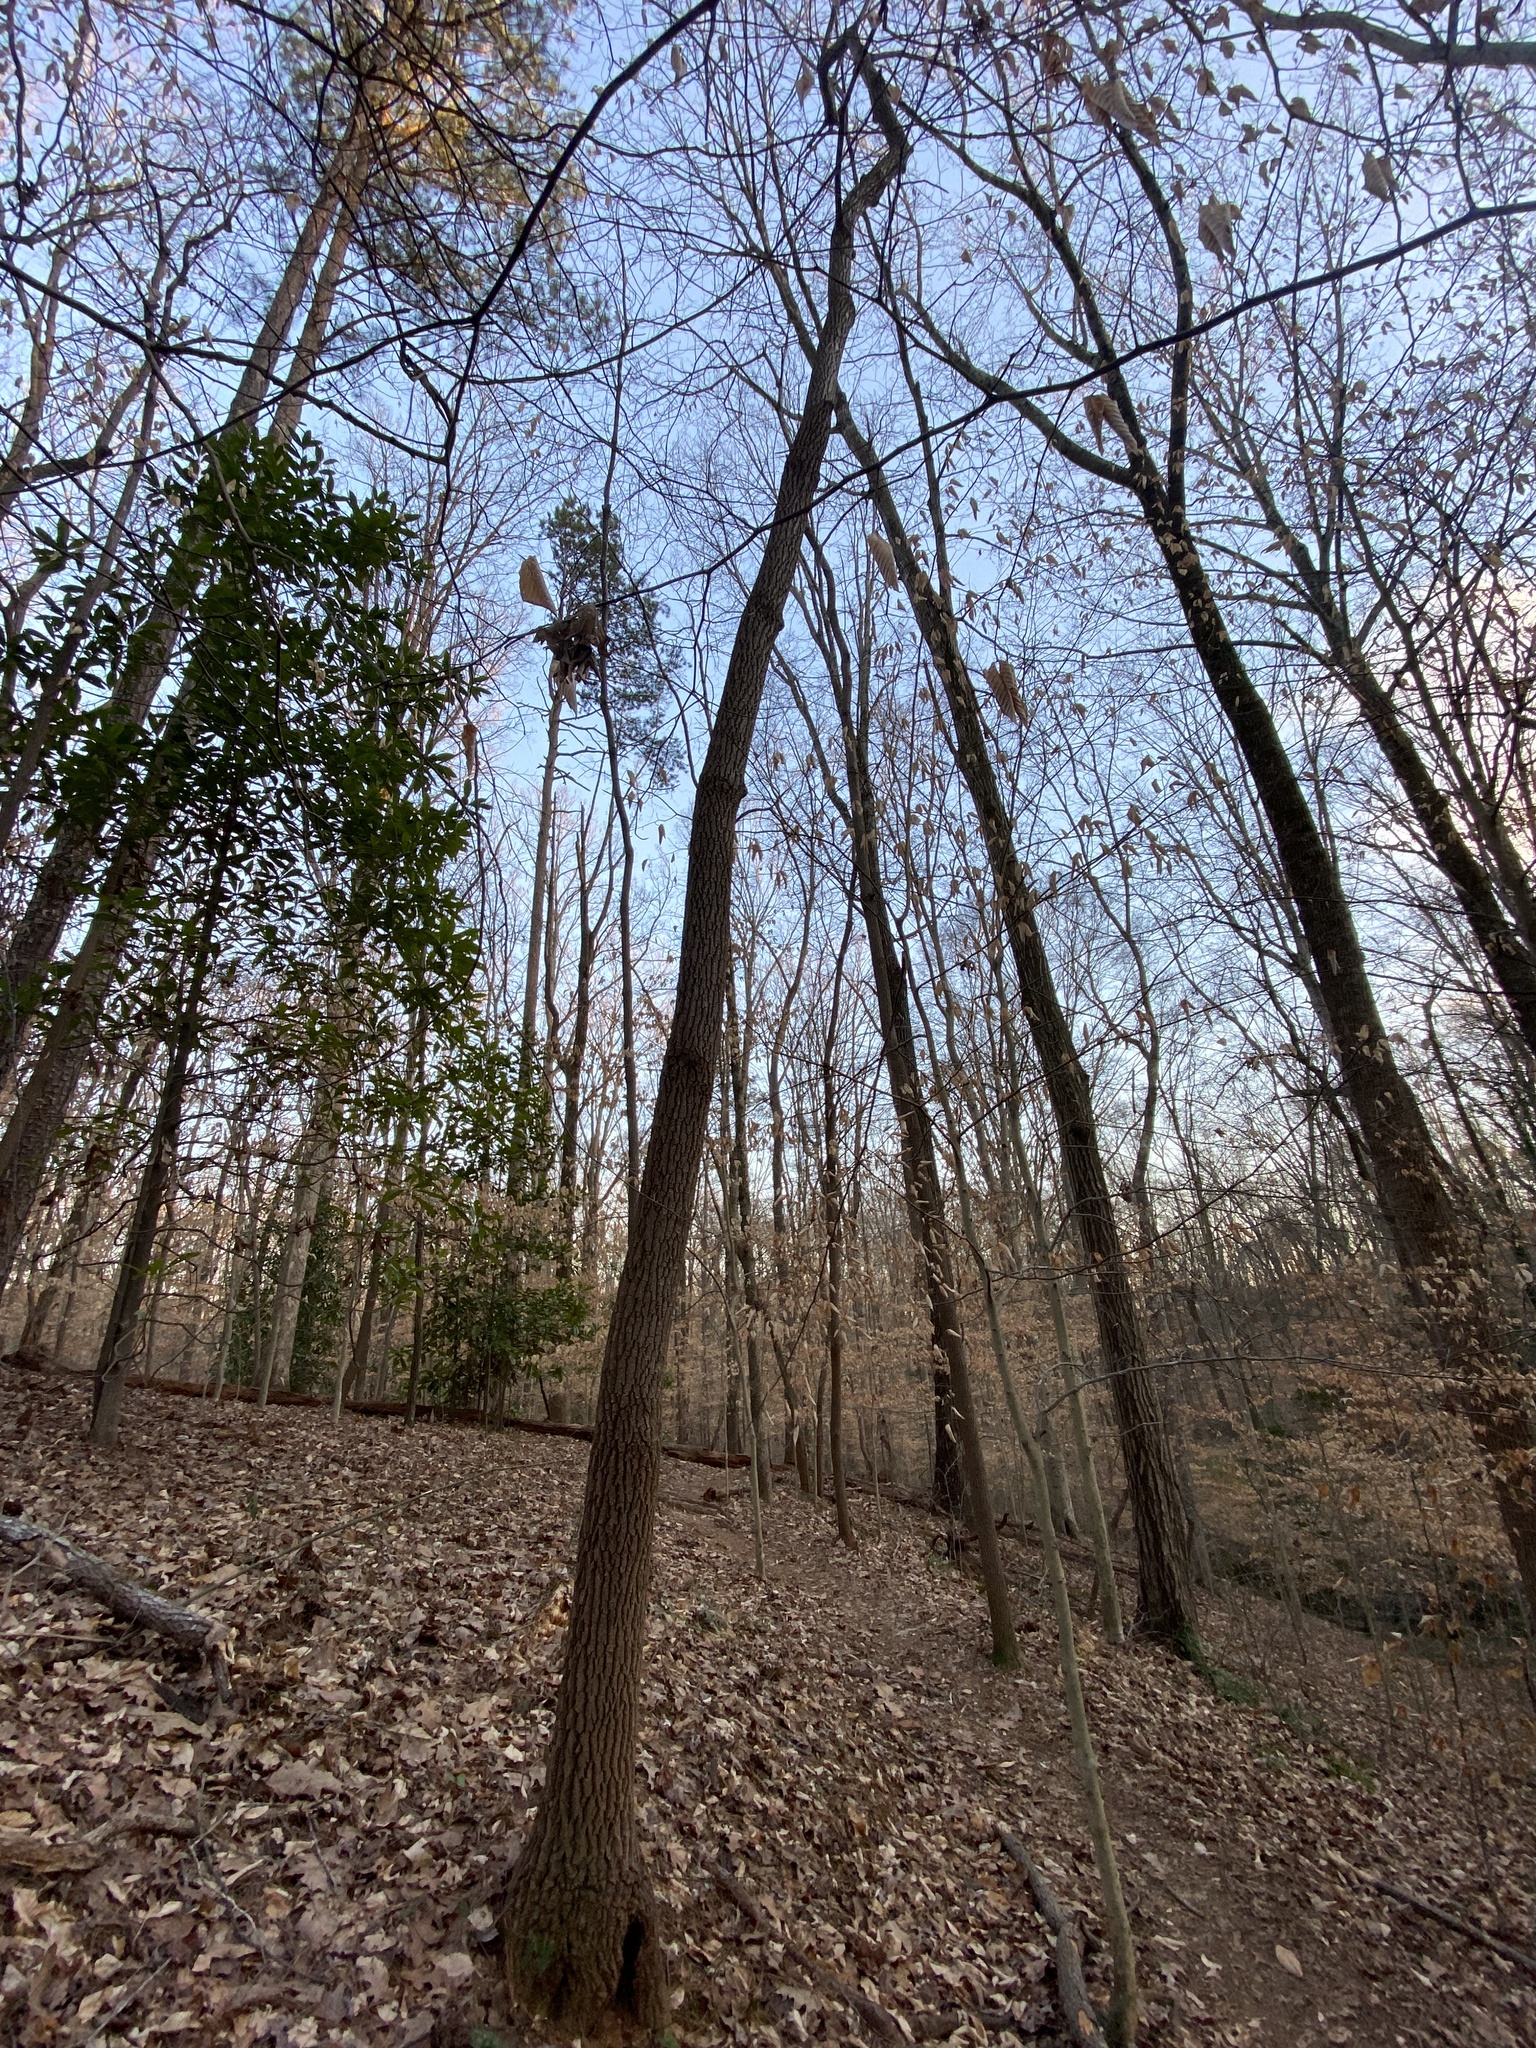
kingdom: Plantae
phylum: Tracheophyta
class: Magnoliopsida
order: Ericales
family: Ericaceae
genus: Oxydendrum
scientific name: Oxydendrum arboreum
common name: Sourwood
